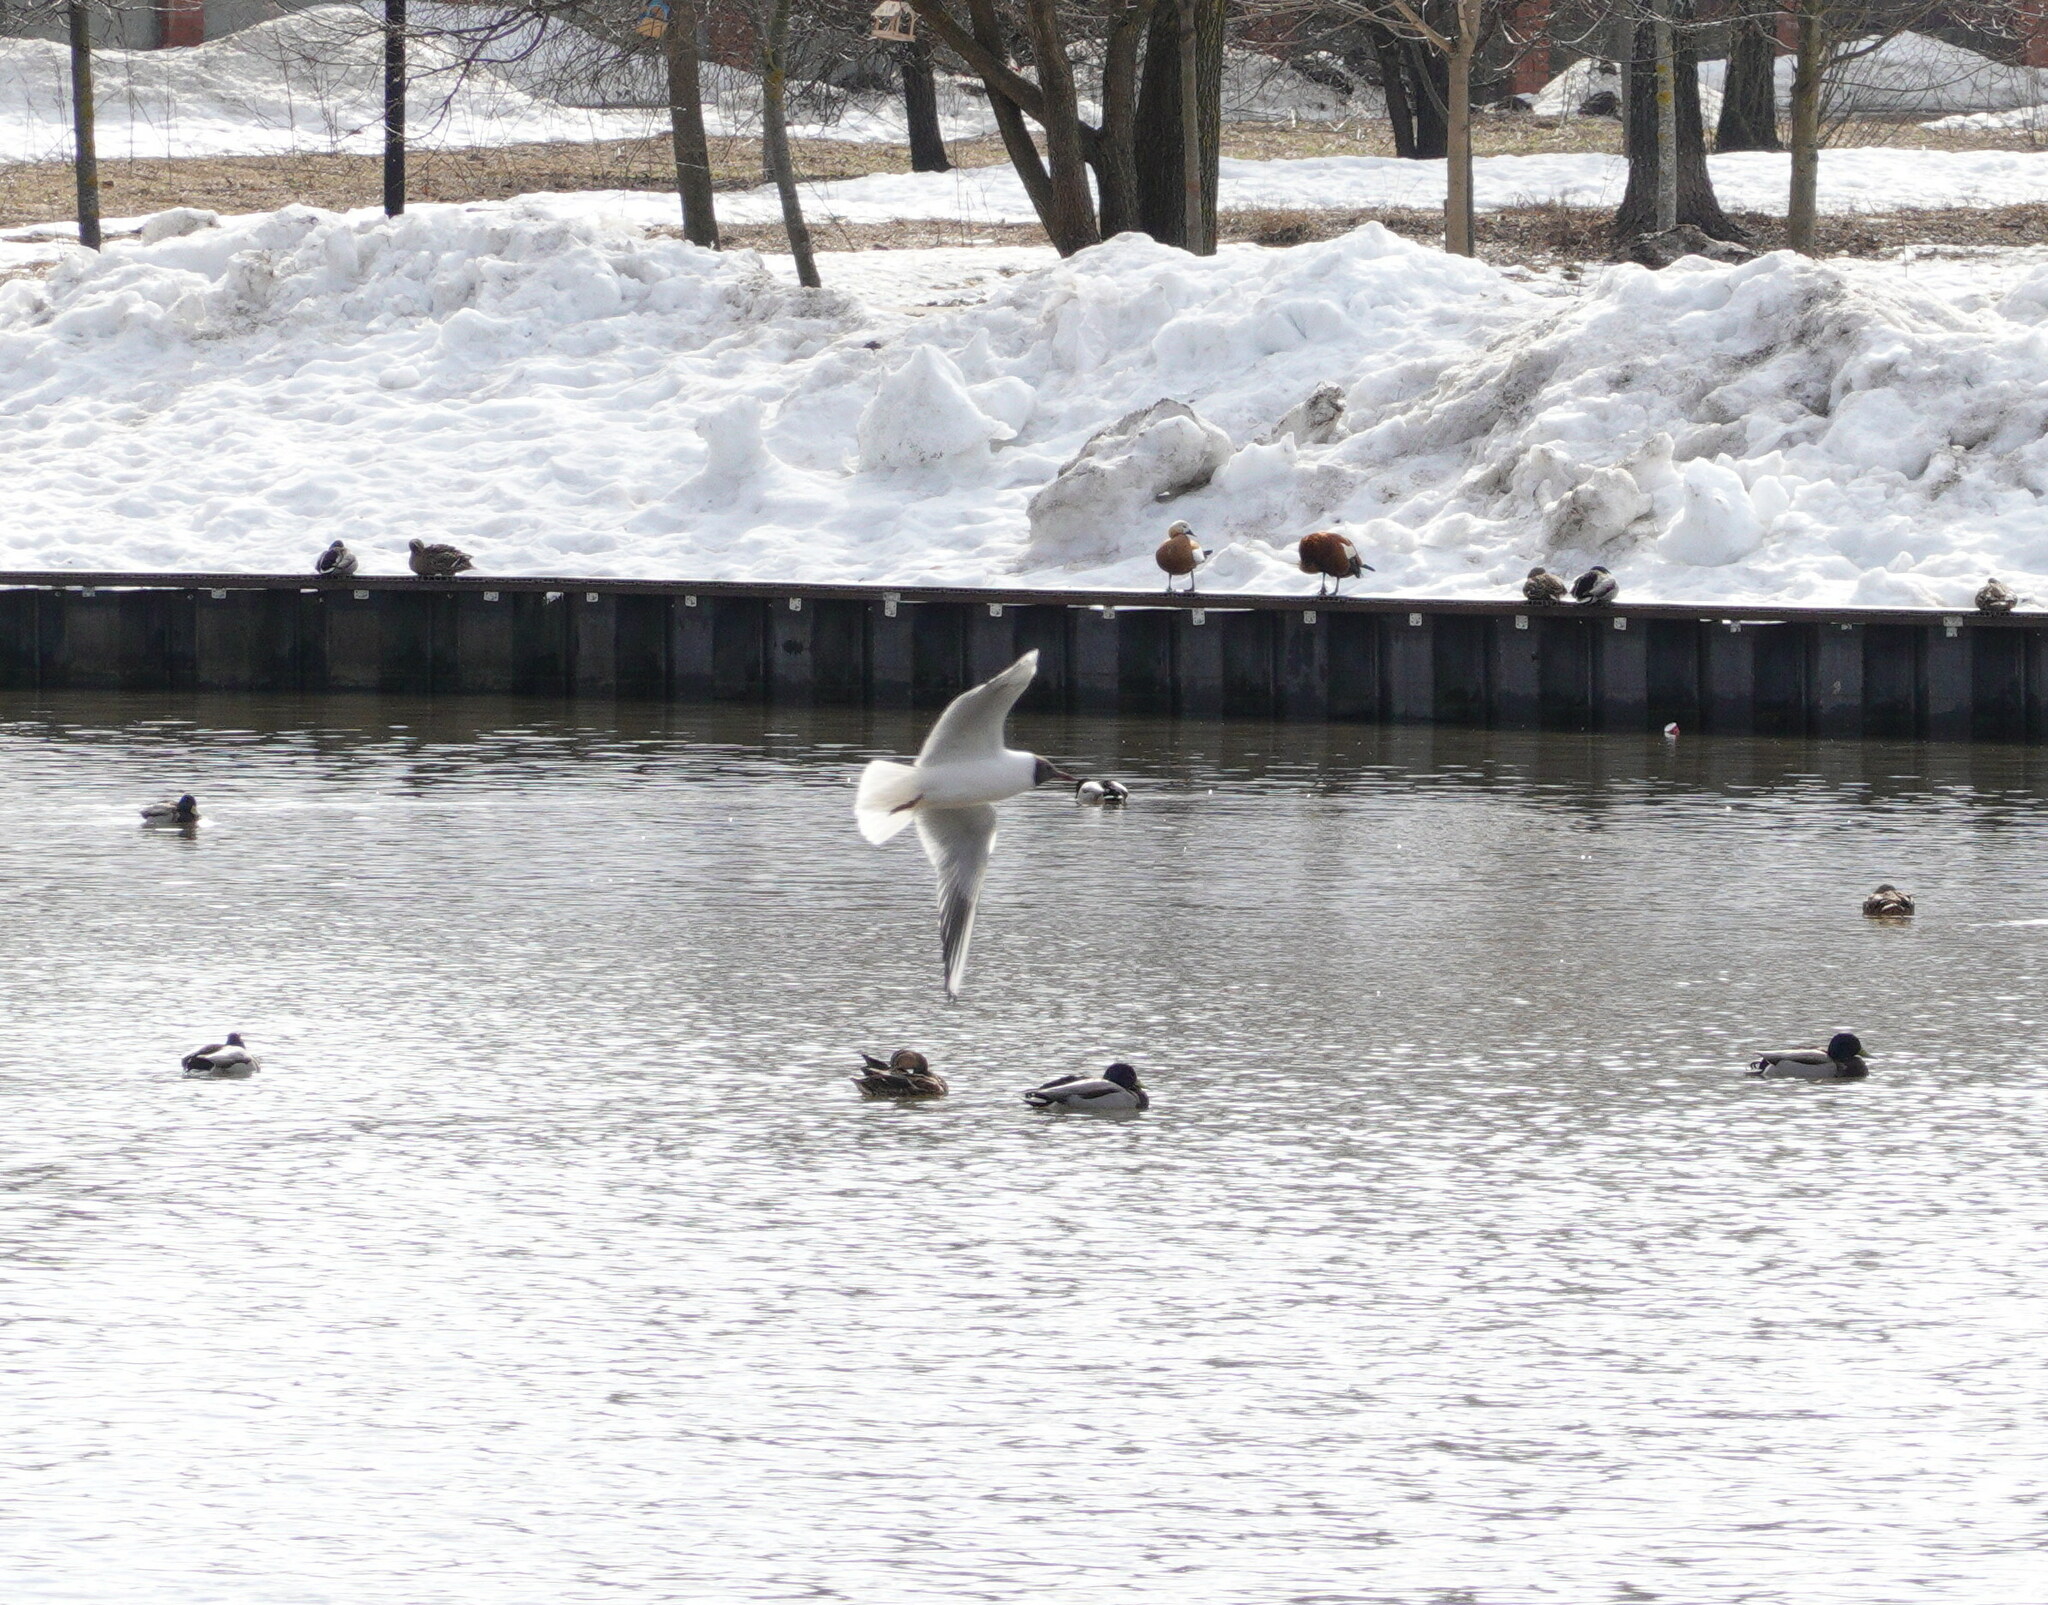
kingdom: Animalia
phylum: Chordata
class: Aves
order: Charadriiformes
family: Laridae
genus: Chroicocephalus
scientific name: Chroicocephalus ridibundus
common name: Black-headed gull
